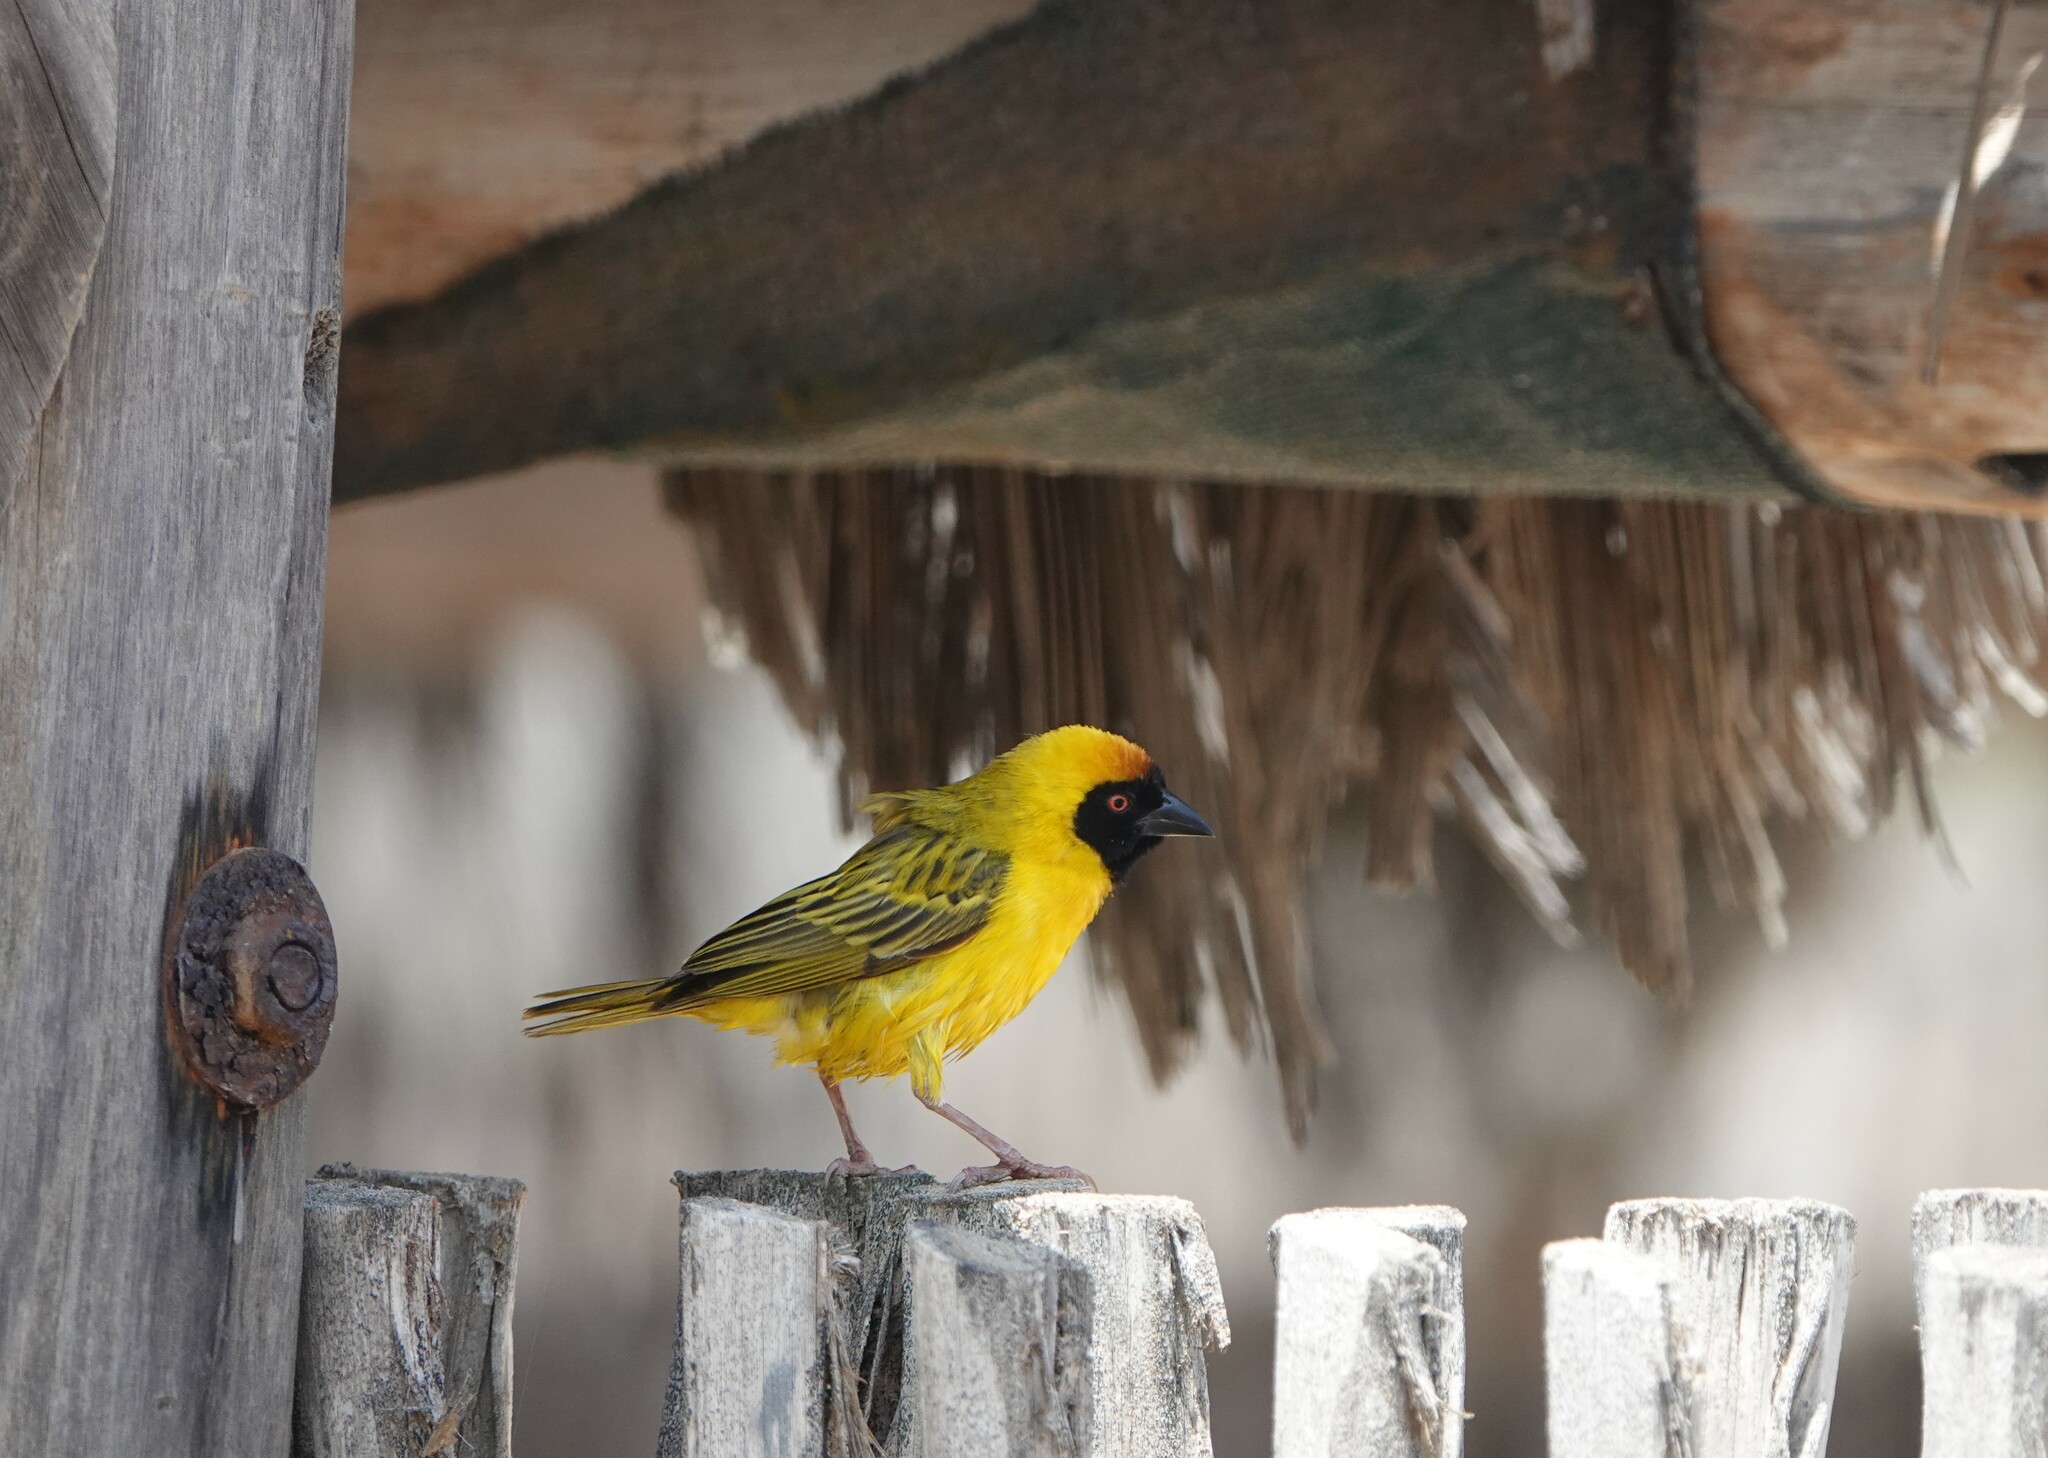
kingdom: Animalia
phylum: Chordata
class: Aves
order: Passeriformes
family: Ploceidae
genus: Ploceus
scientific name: Ploceus velatus
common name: Southern masked weaver
